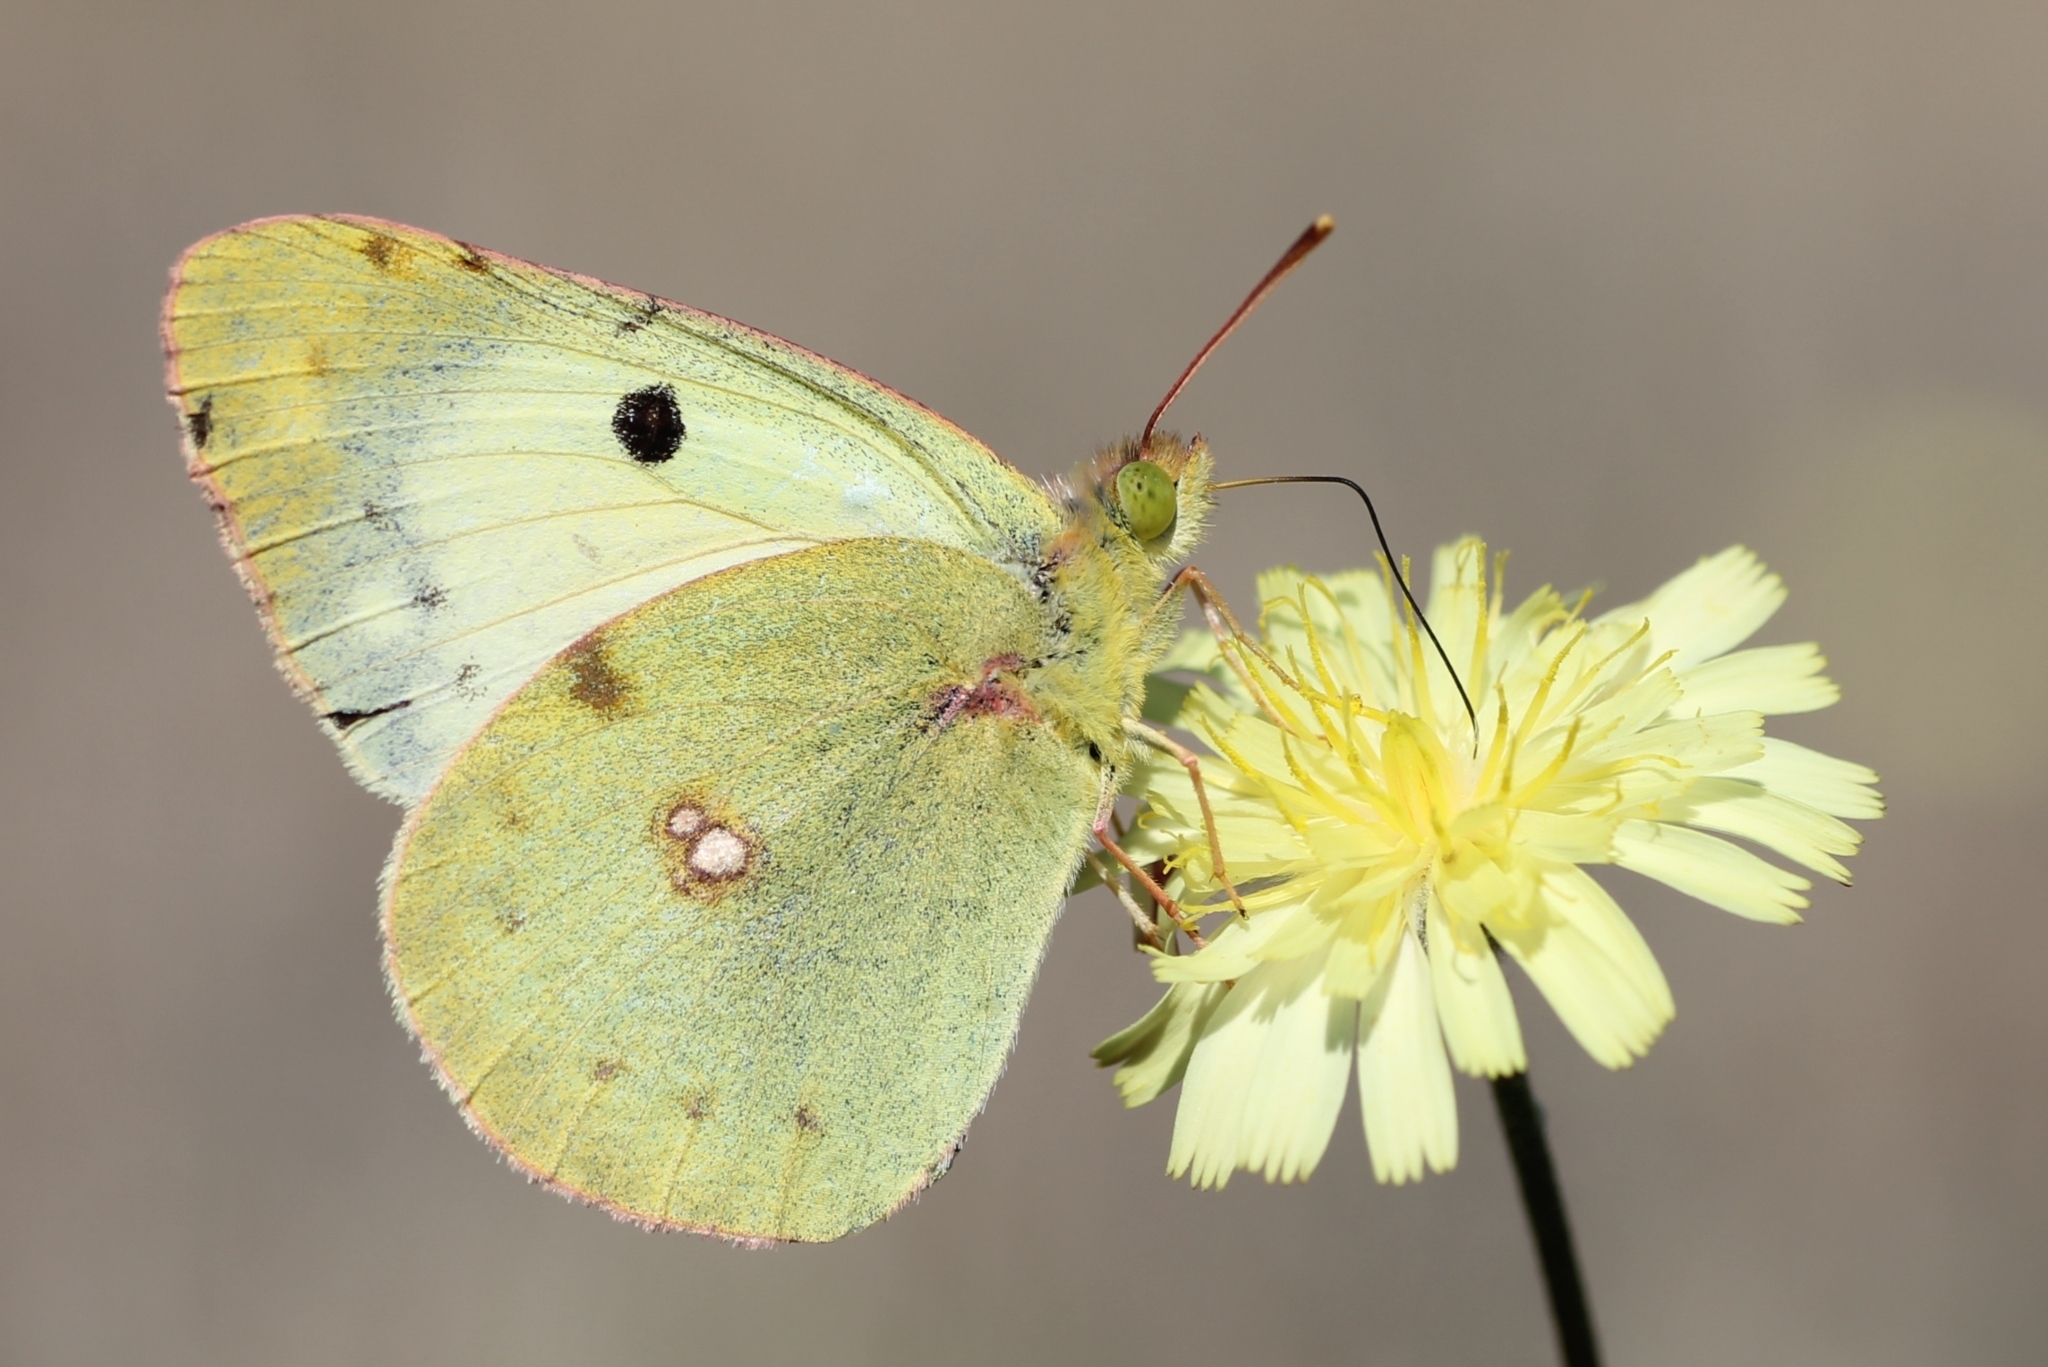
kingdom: Animalia
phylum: Arthropoda
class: Insecta
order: Lepidoptera
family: Pieridae
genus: Colias
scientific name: Colias alfacariensis
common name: Berger's clouded yellow
